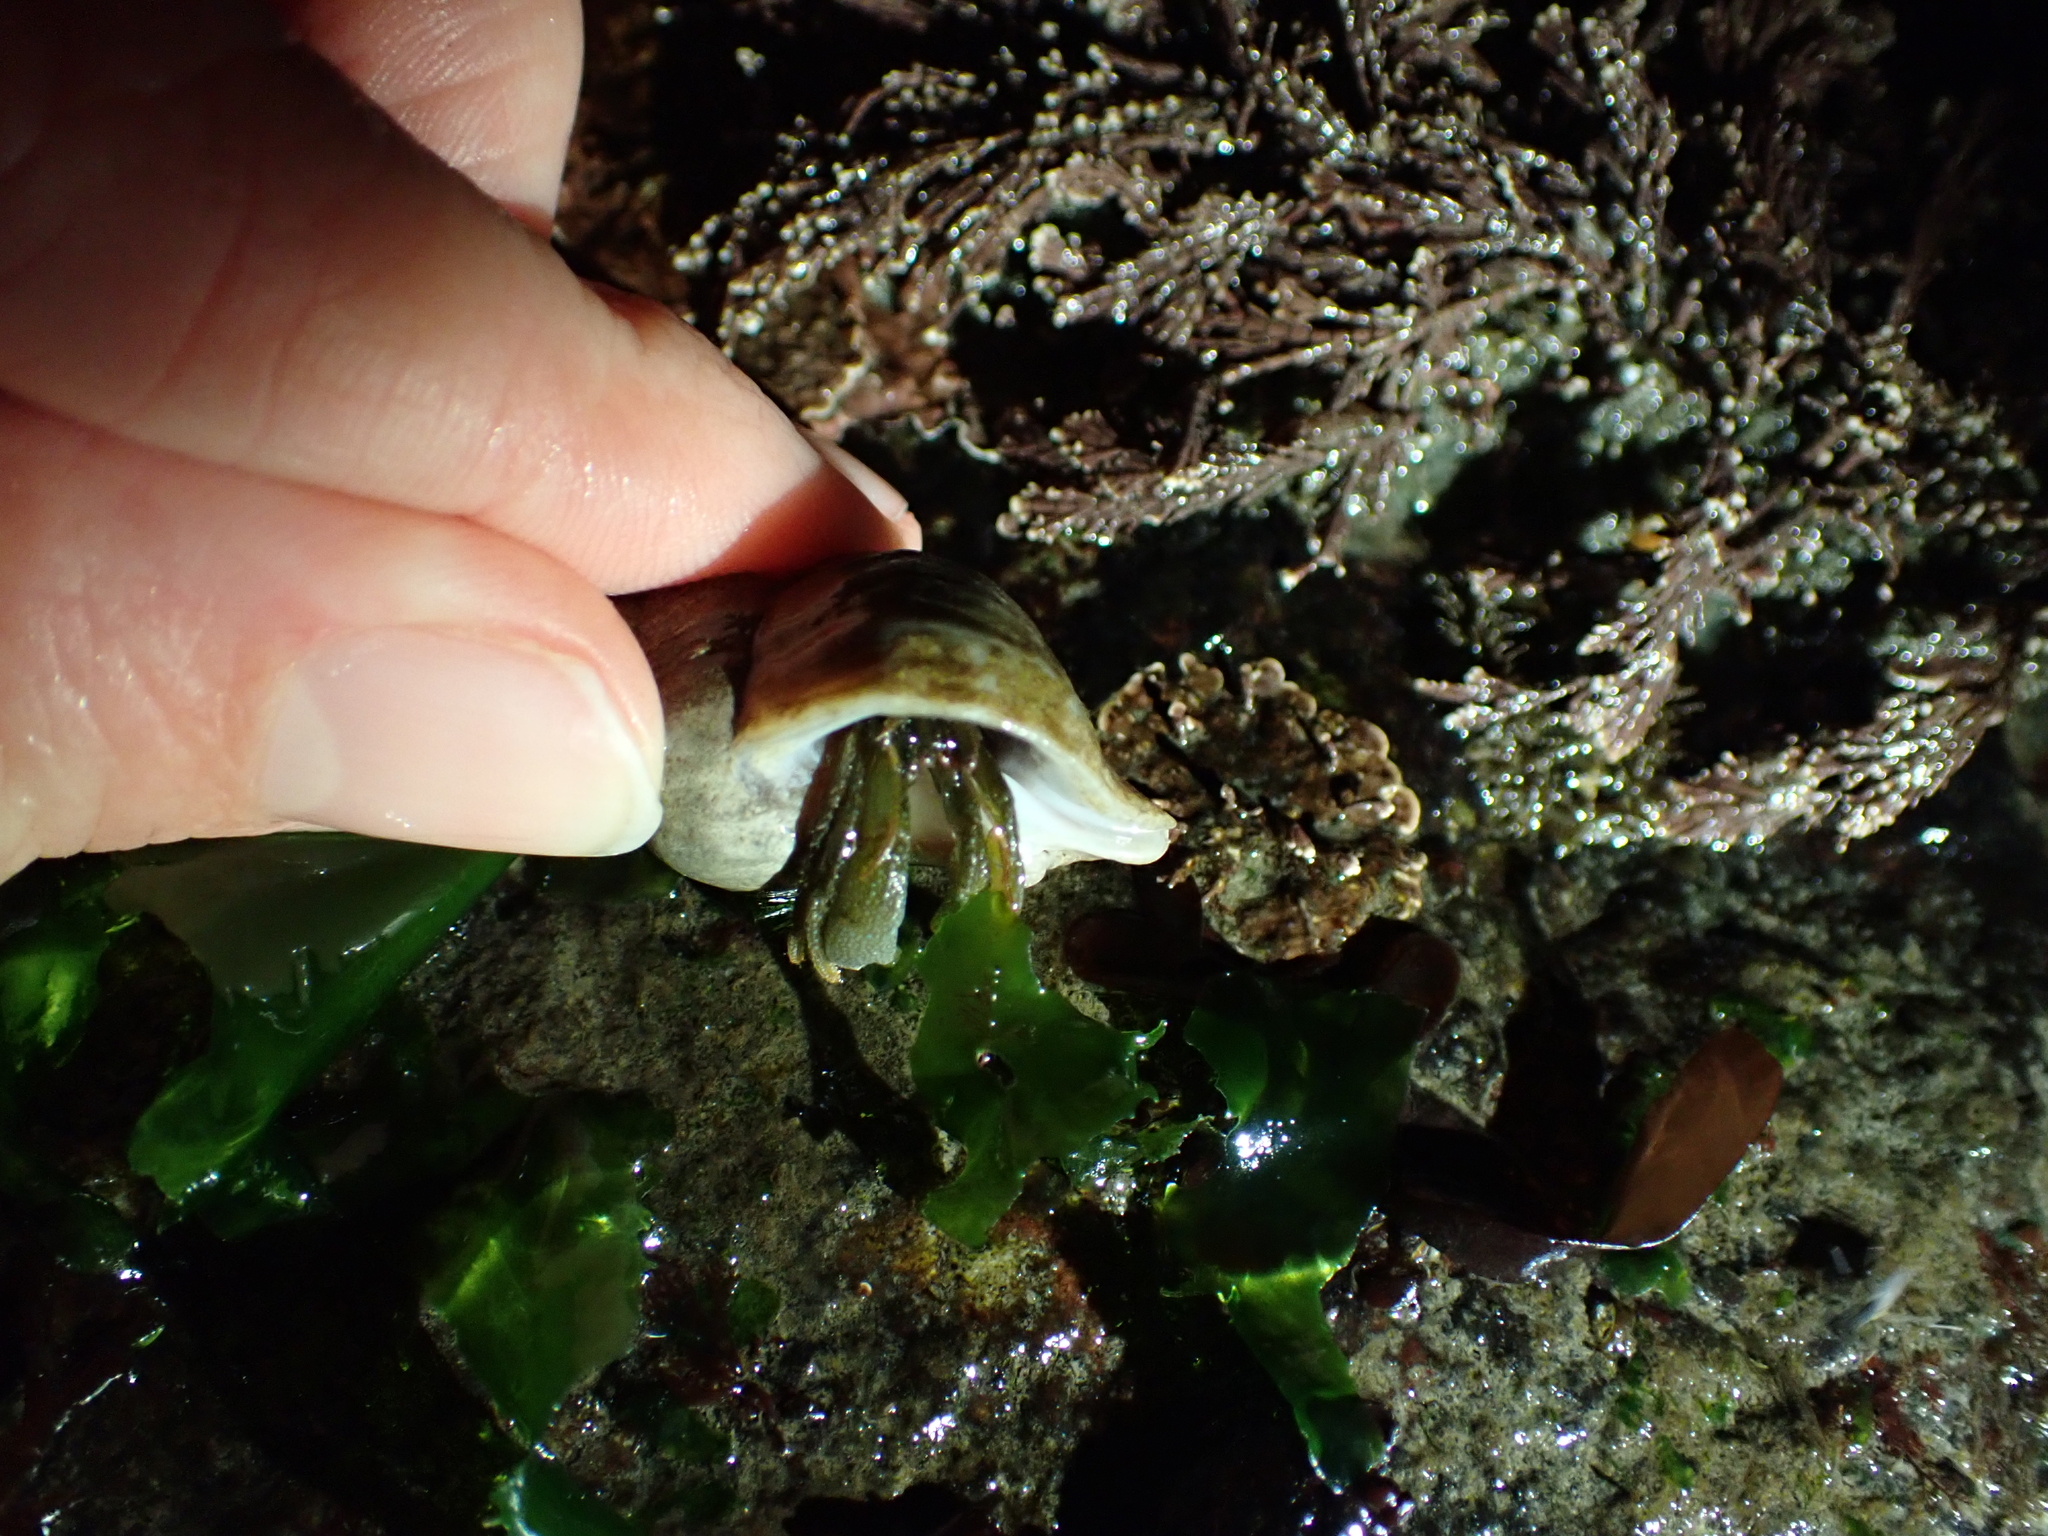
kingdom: Animalia
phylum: Arthropoda
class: Malacostraca
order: Decapoda
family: Paguridae
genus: Pagurus
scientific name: Pagurus granosimanus
